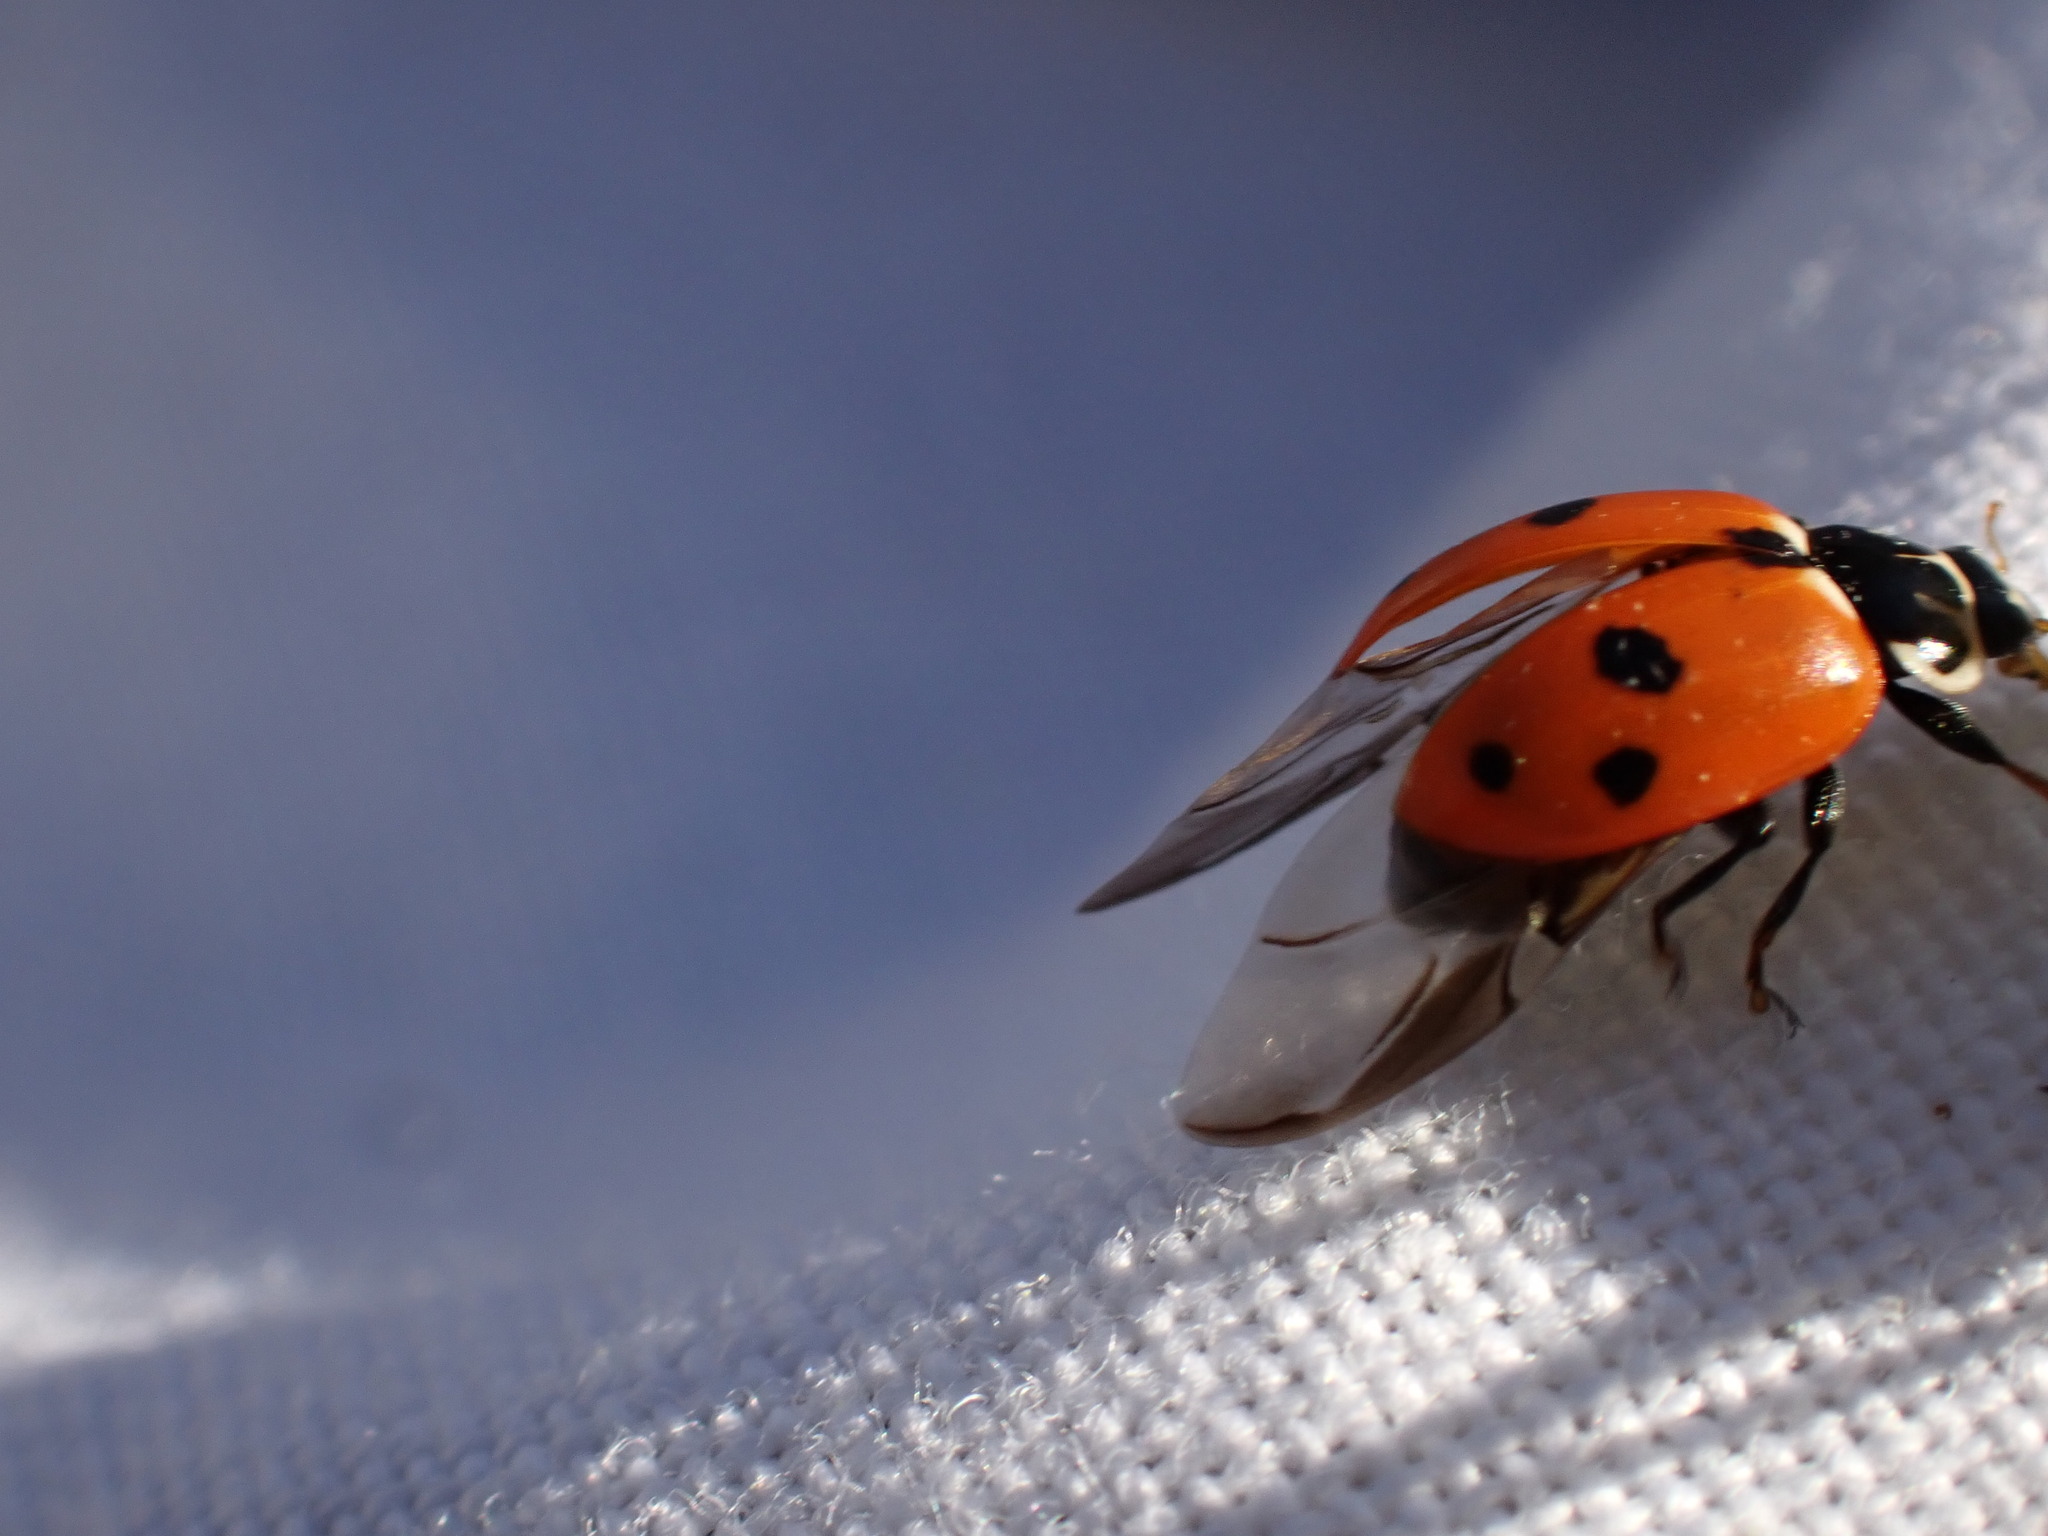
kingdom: Animalia
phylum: Arthropoda
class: Insecta
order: Coleoptera
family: Coccinellidae
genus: Hippodamia
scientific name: Hippodamia variegata
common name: Ladybird beetle
